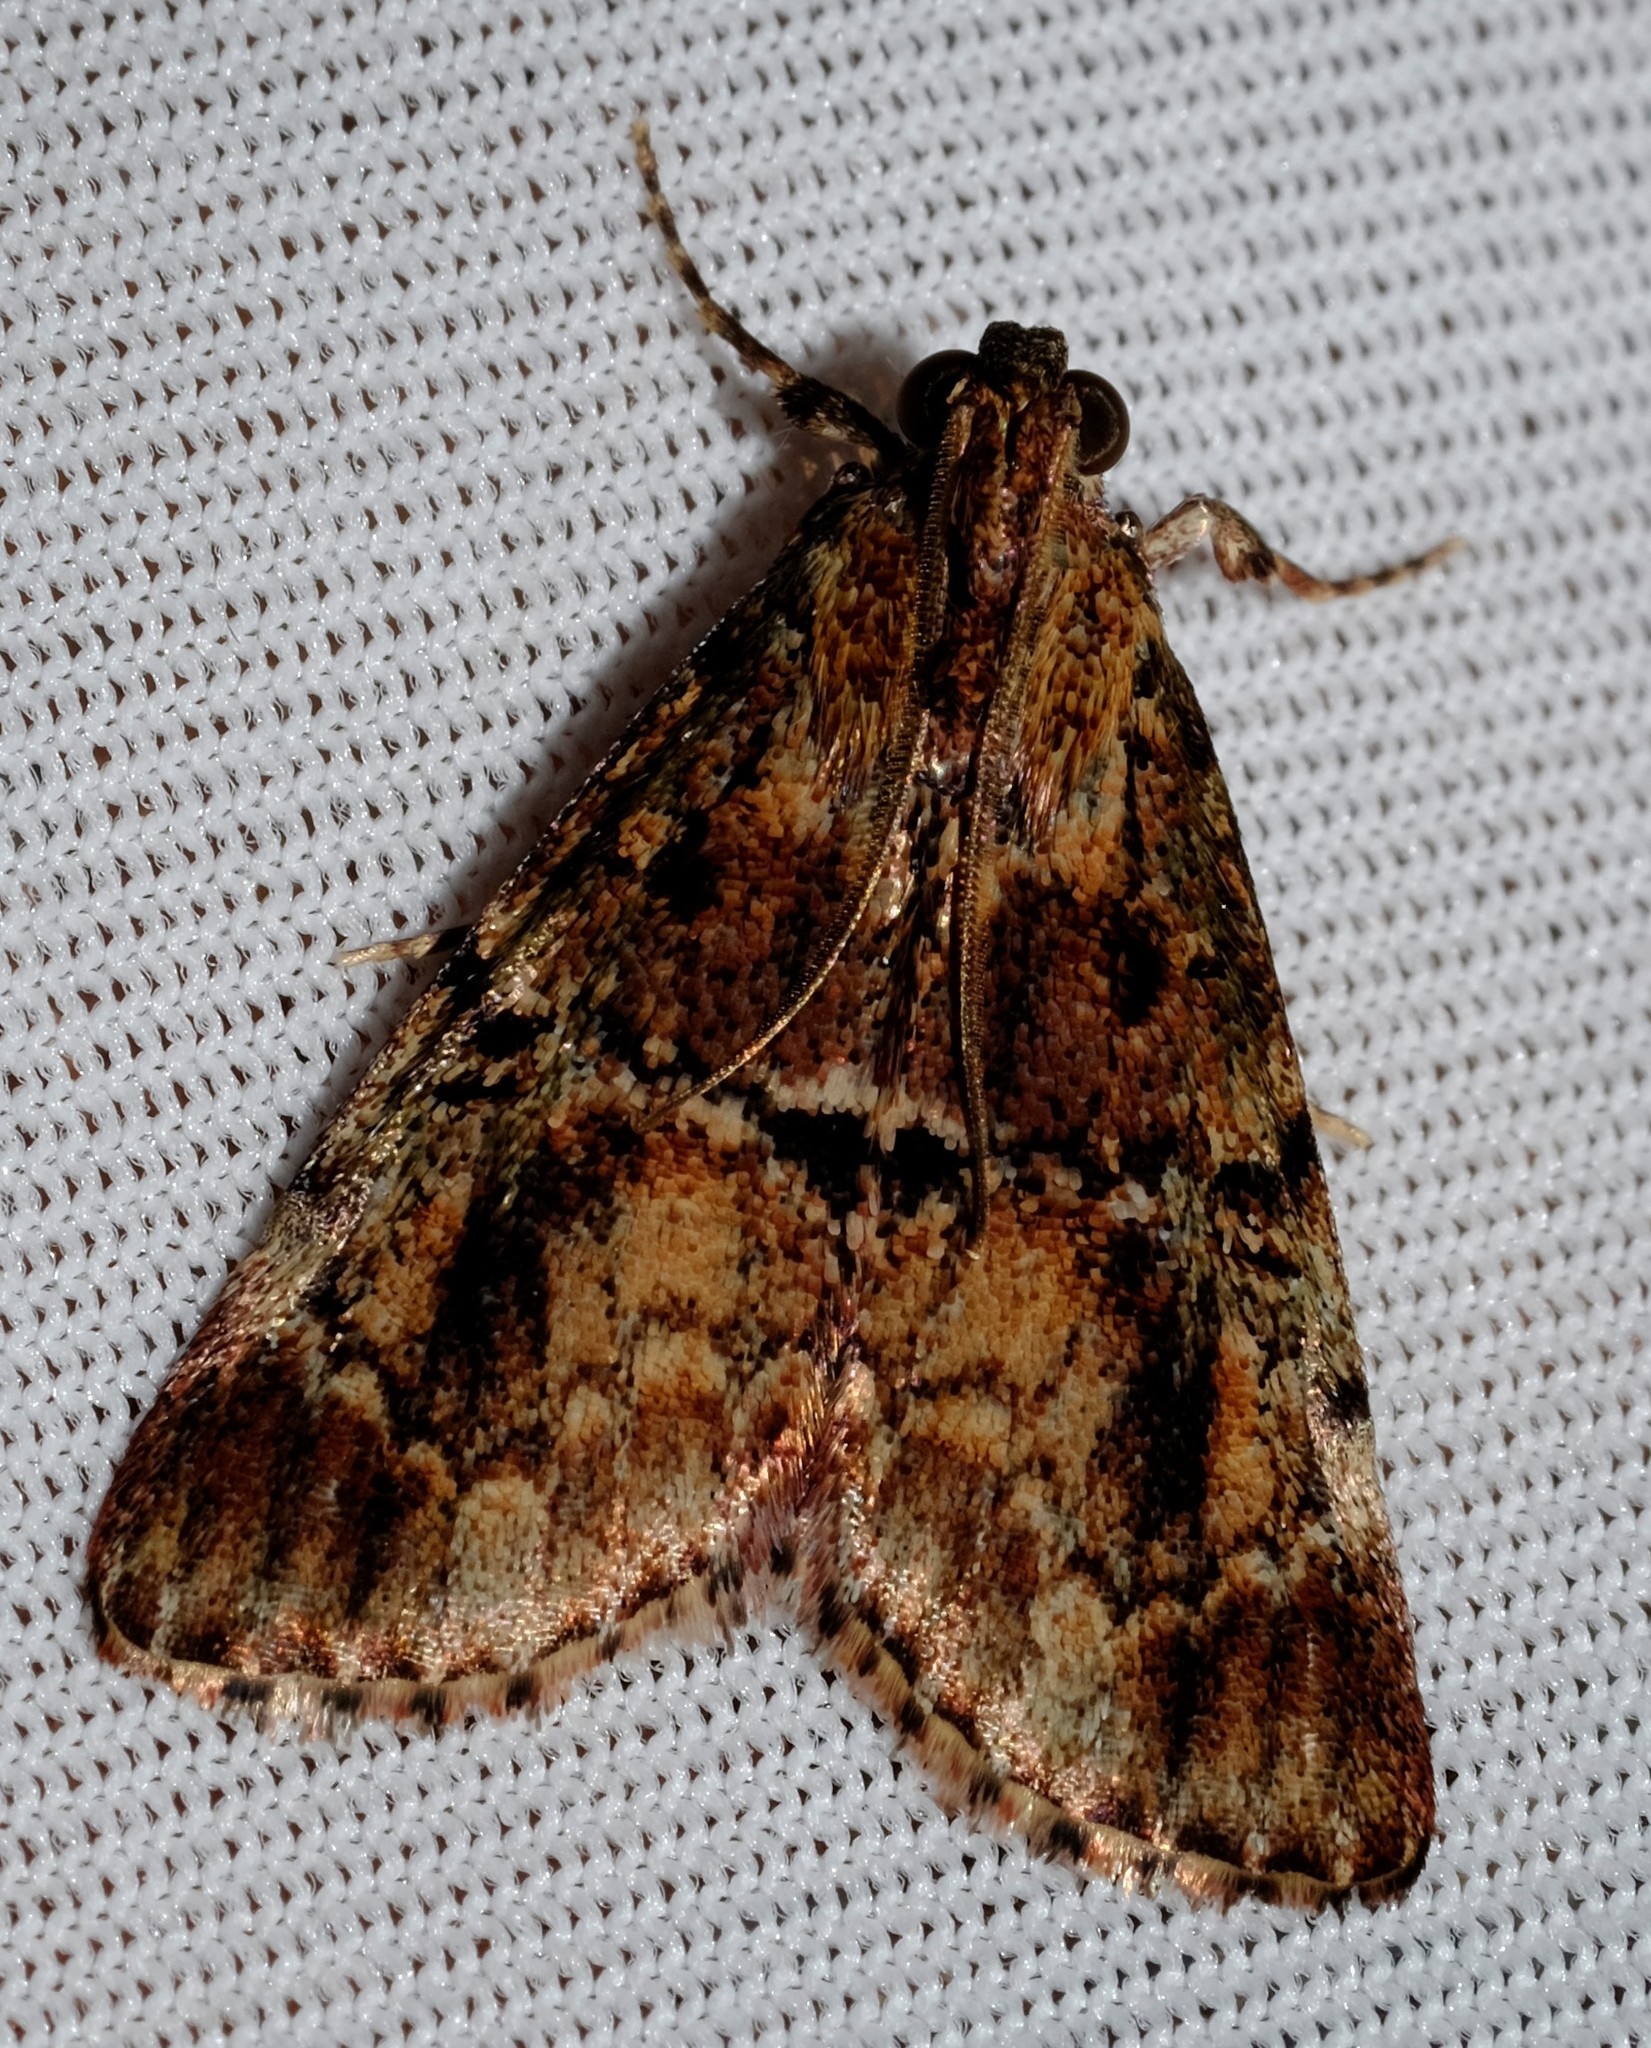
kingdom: Animalia
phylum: Arthropoda
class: Insecta
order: Lepidoptera
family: Pyralidae
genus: Orthaga
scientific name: Orthaga thyrisalis
